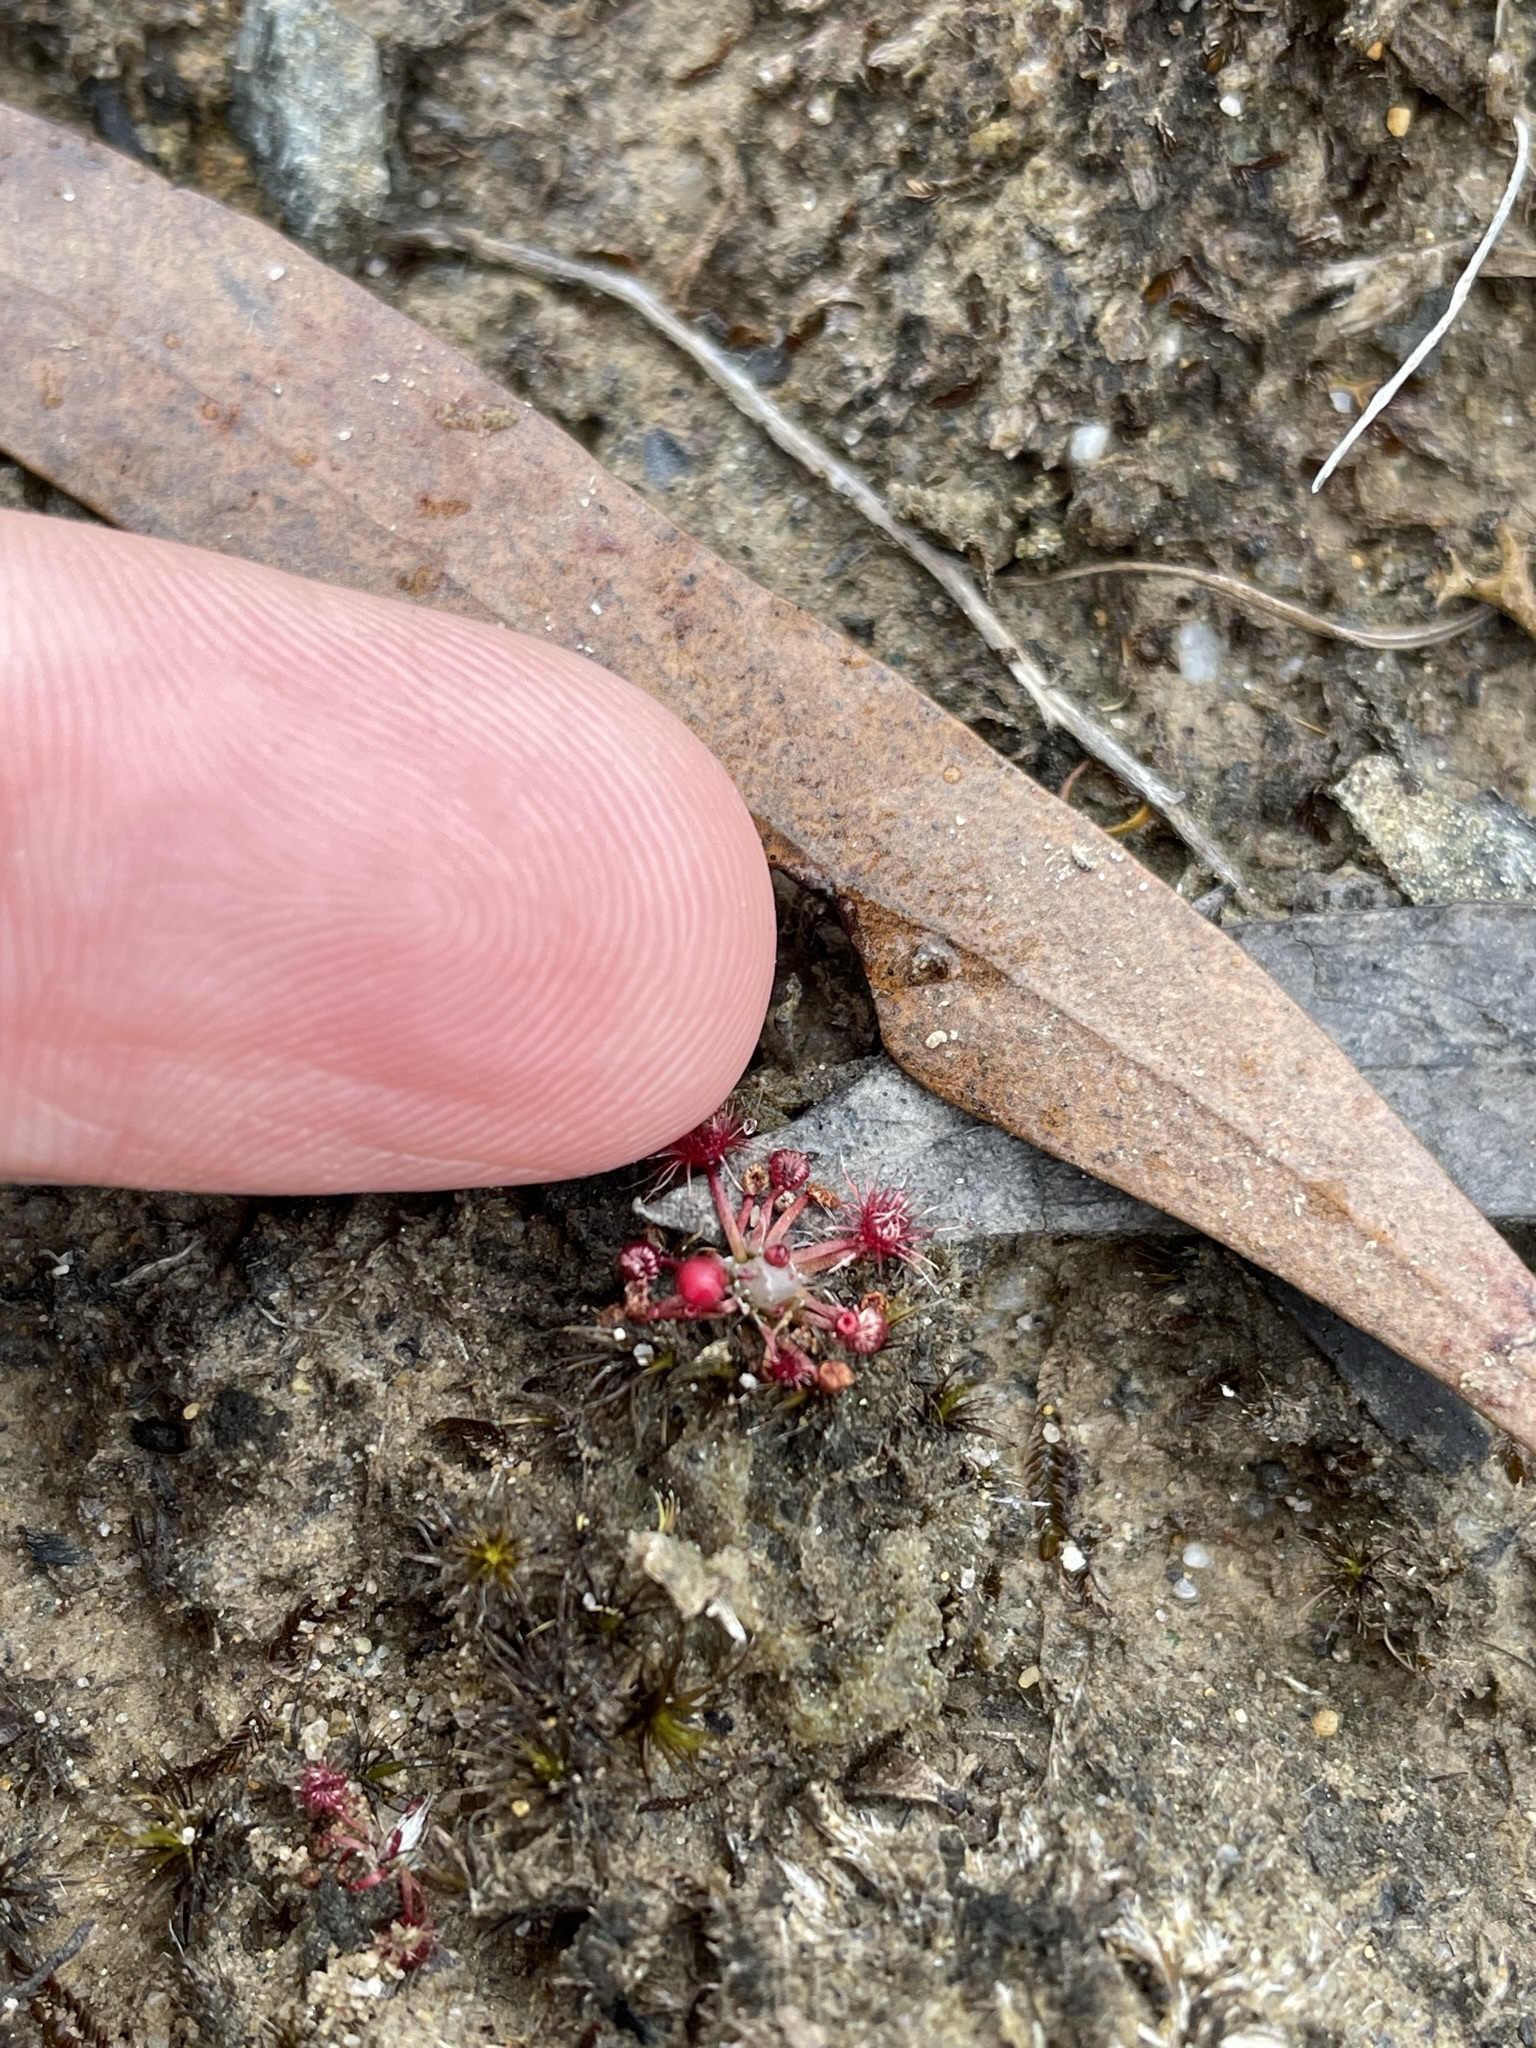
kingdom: Plantae
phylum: Tracheophyta
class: Magnoliopsida
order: Caryophyllales
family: Droseraceae
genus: Drosera
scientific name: Drosera pygmaea
